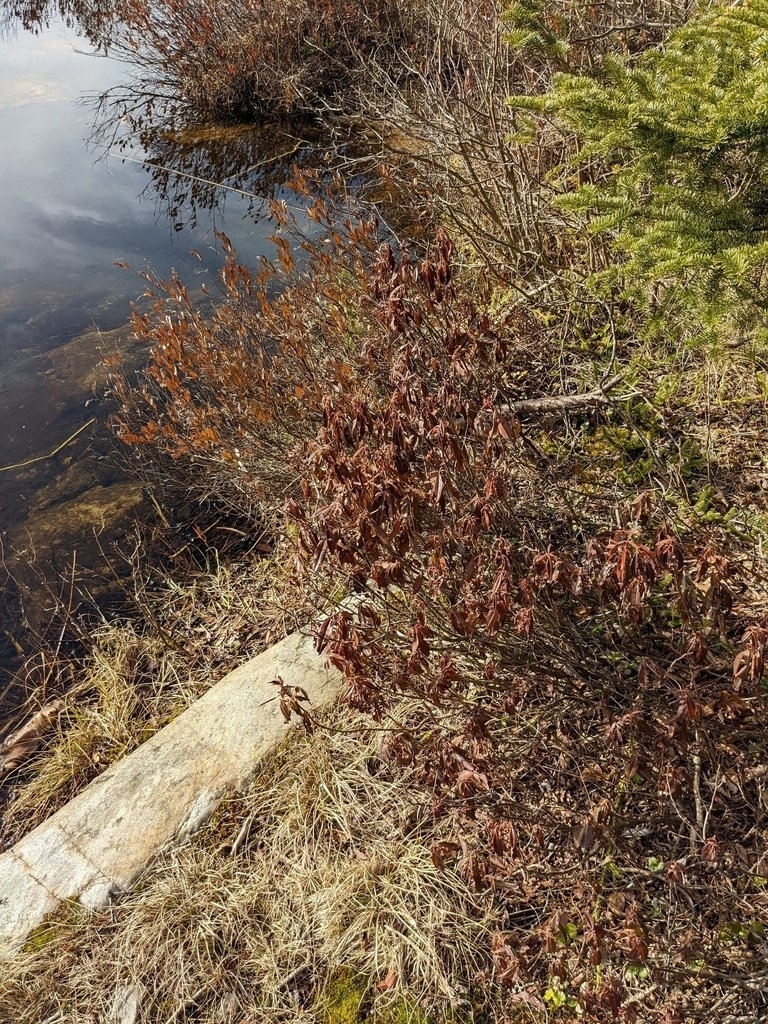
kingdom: Plantae
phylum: Tracheophyta
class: Magnoliopsida
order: Ericales
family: Ericaceae
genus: Kalmia
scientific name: Kalmia angustifolia
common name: Sheep-laurel
